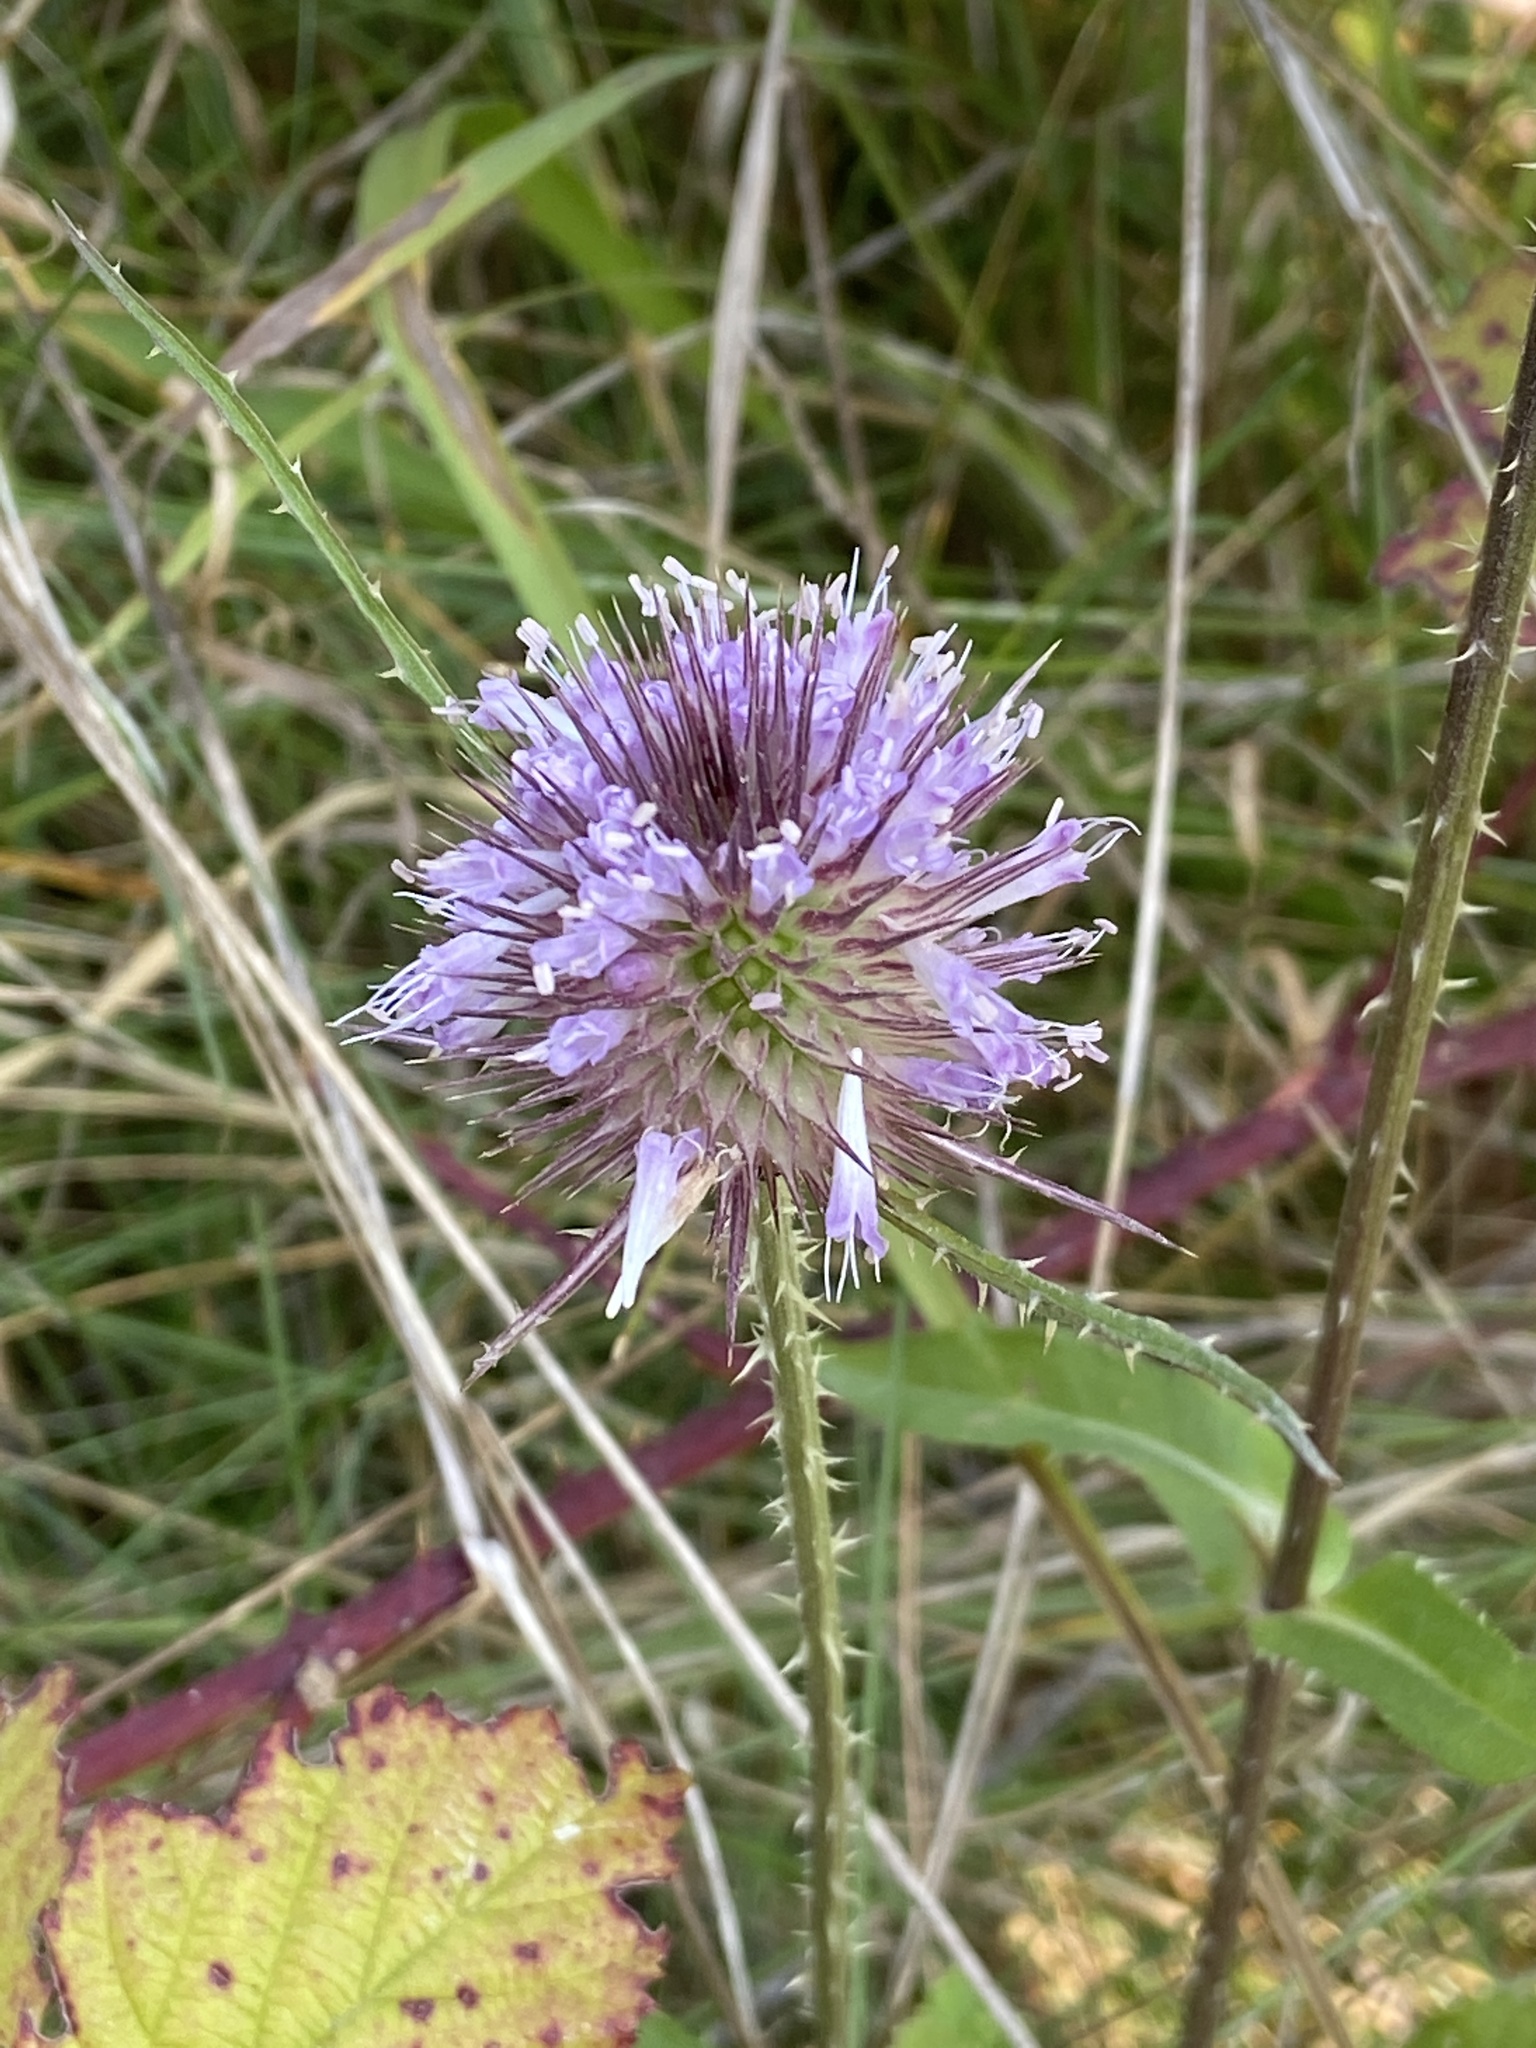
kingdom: Plantae
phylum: Tracheophyta
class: Magnoliopsida
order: Dipsacales
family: Caprifoliaceae
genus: Dipsacus
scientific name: Dipsacus fullonum
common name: Teasel
